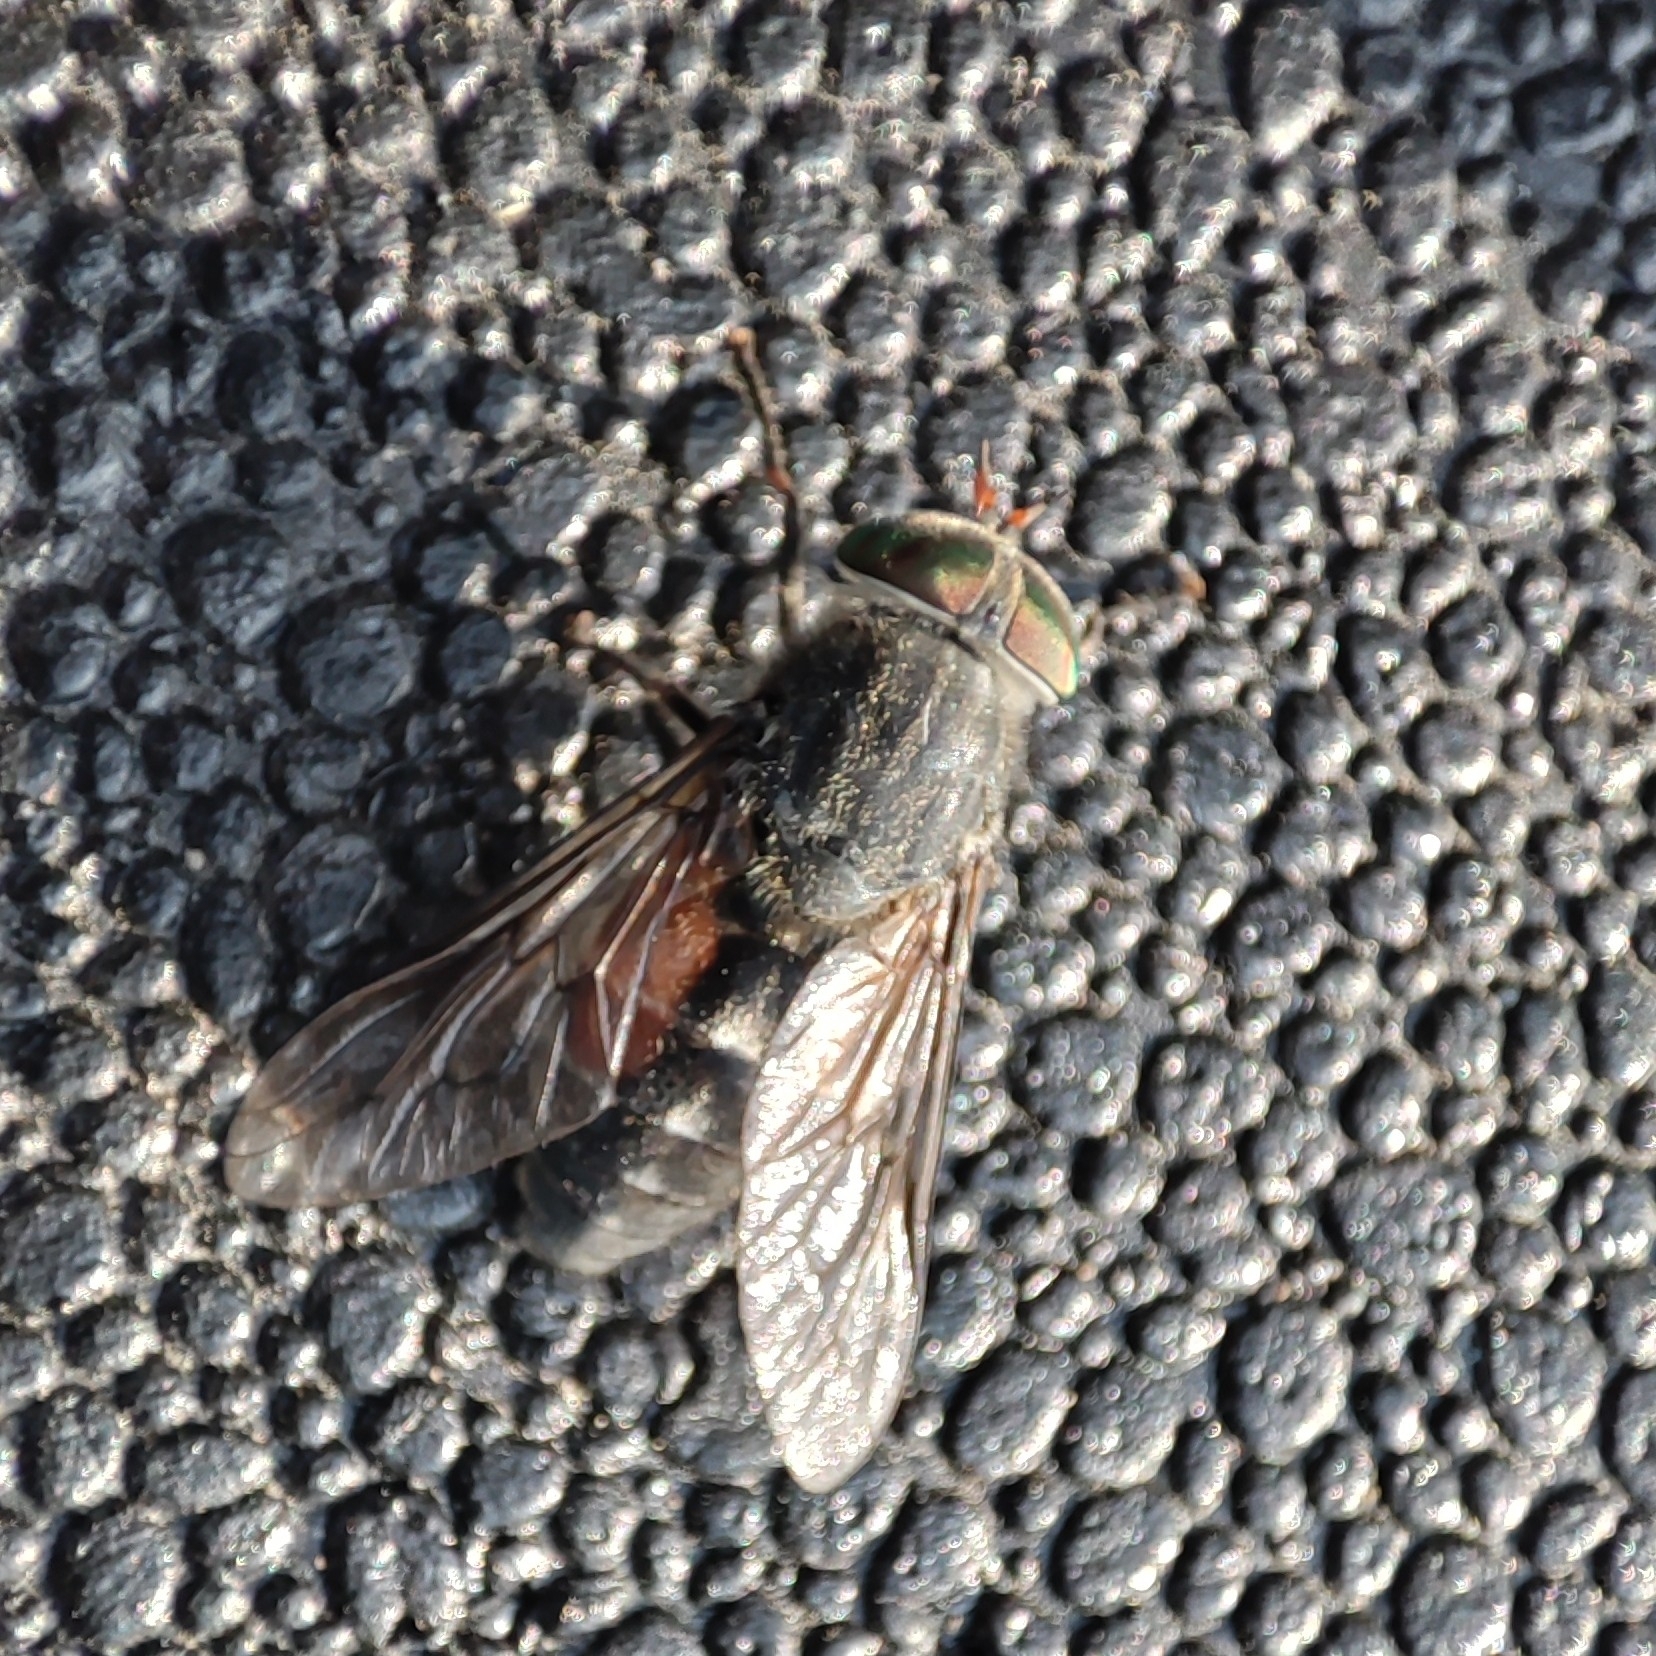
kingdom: Animalia
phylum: Arthropoda
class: Insecta
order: Diptera
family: Tabanidae
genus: Hybomitra
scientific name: Hybomitra bimaculata
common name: Hairy-legged horsefly
